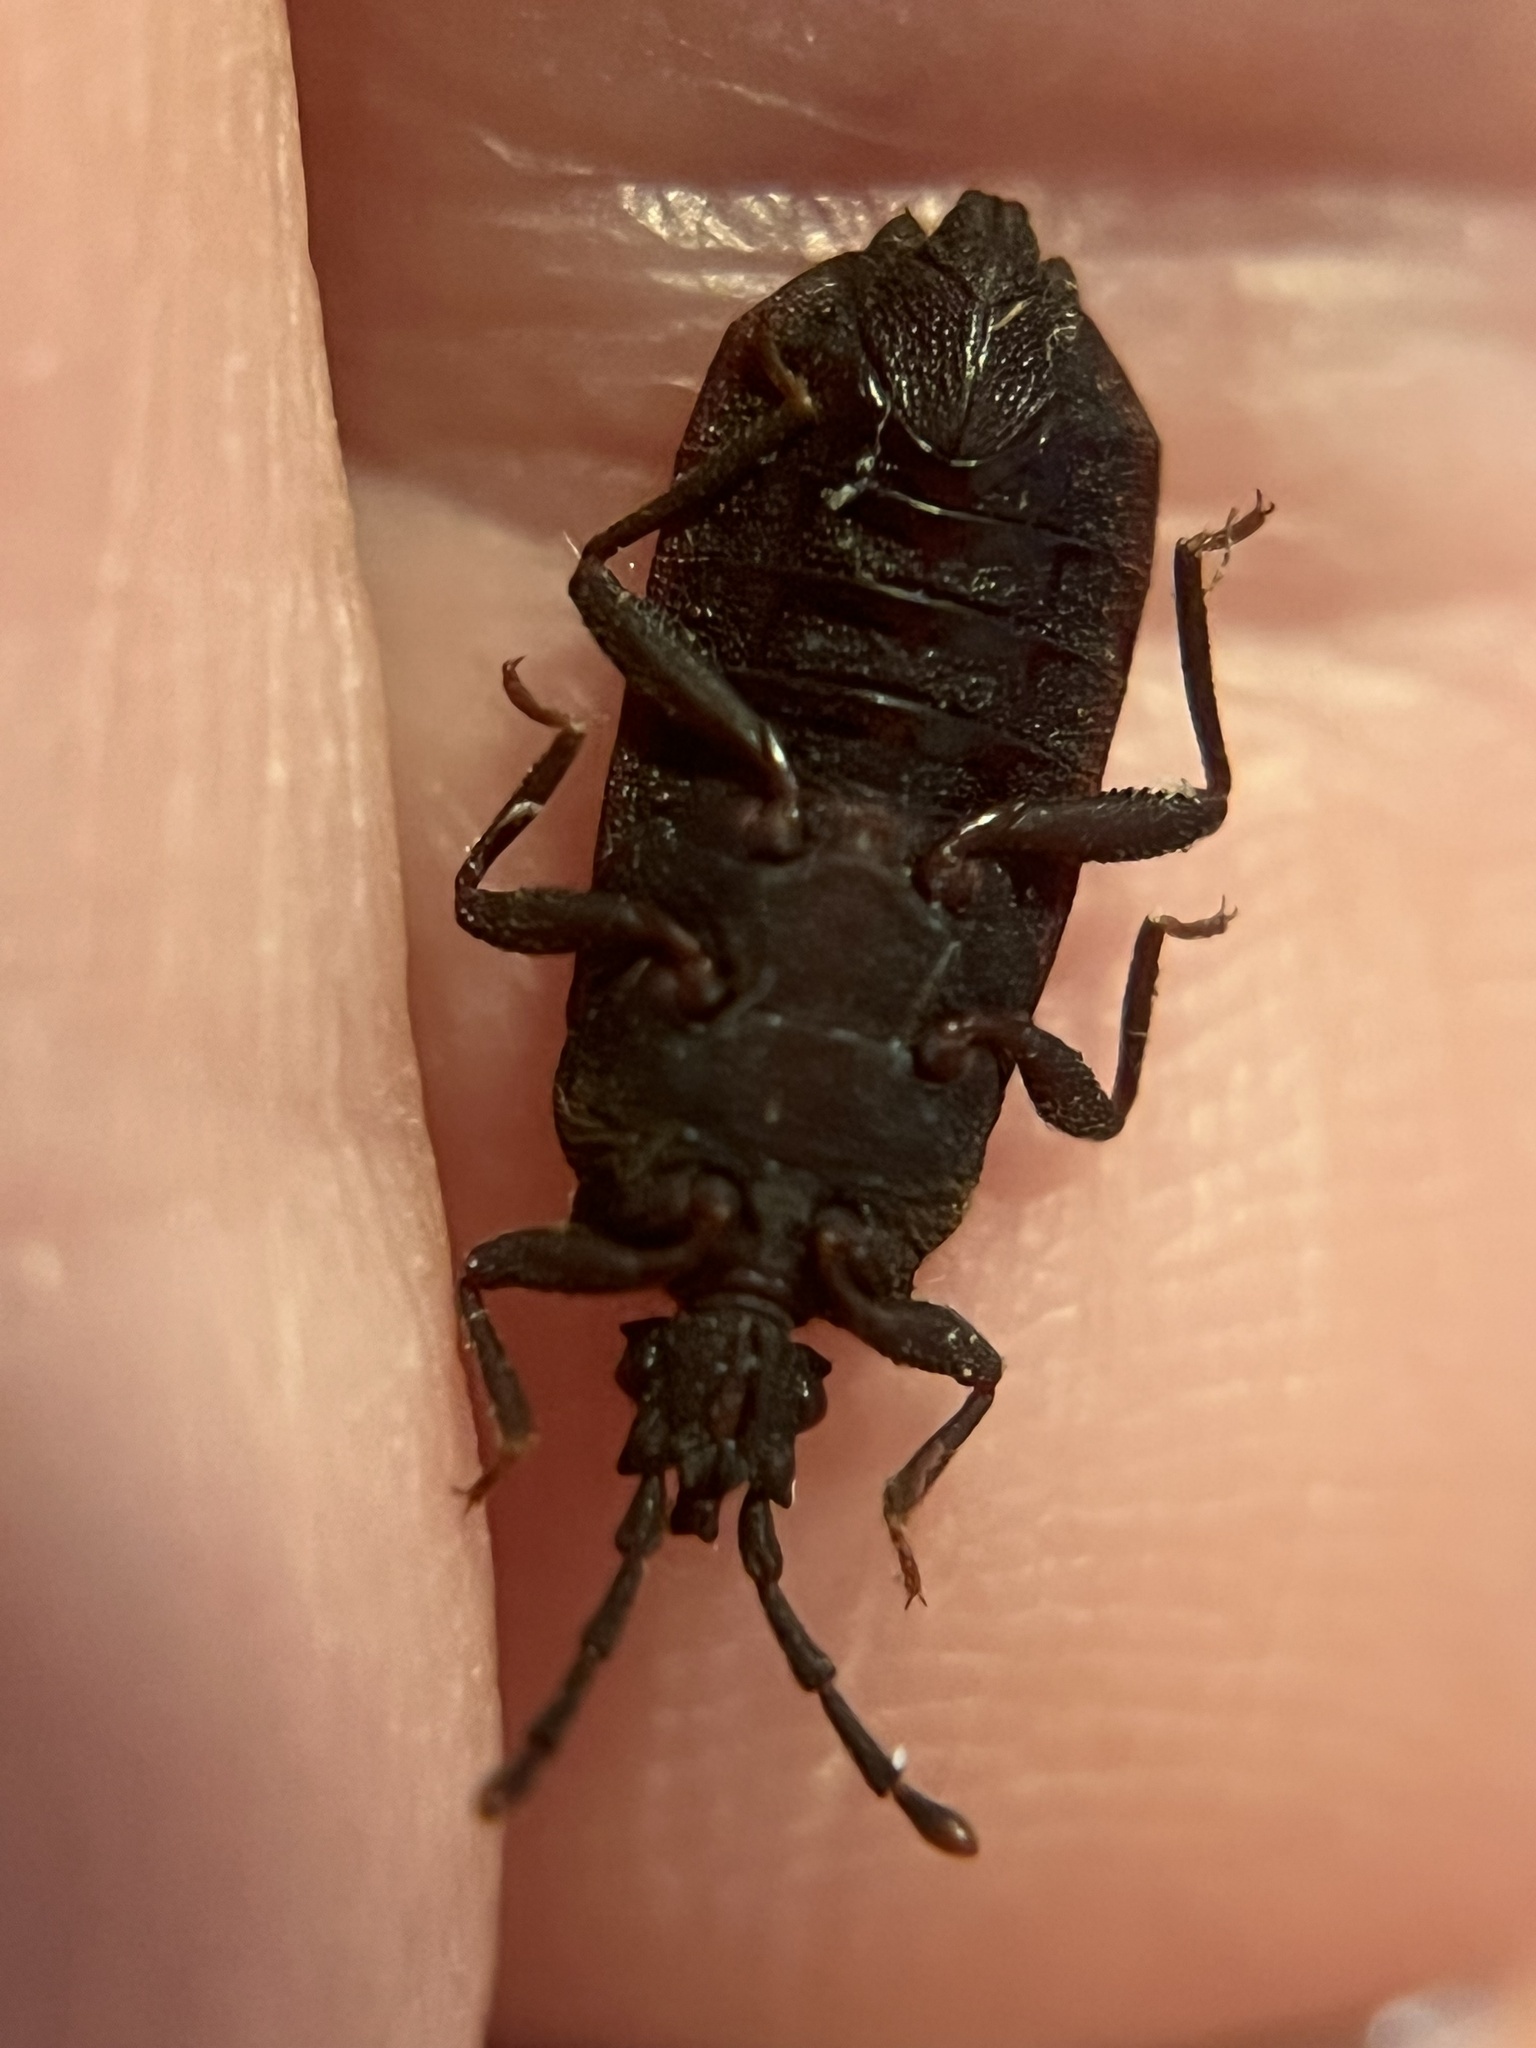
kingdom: Animalia
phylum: Arthropoda
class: Insecta
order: Hemiptera
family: Aradidae
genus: Brachyrhynchus
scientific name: Brachyrhynchus membranaceus
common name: Aradid flat bug
